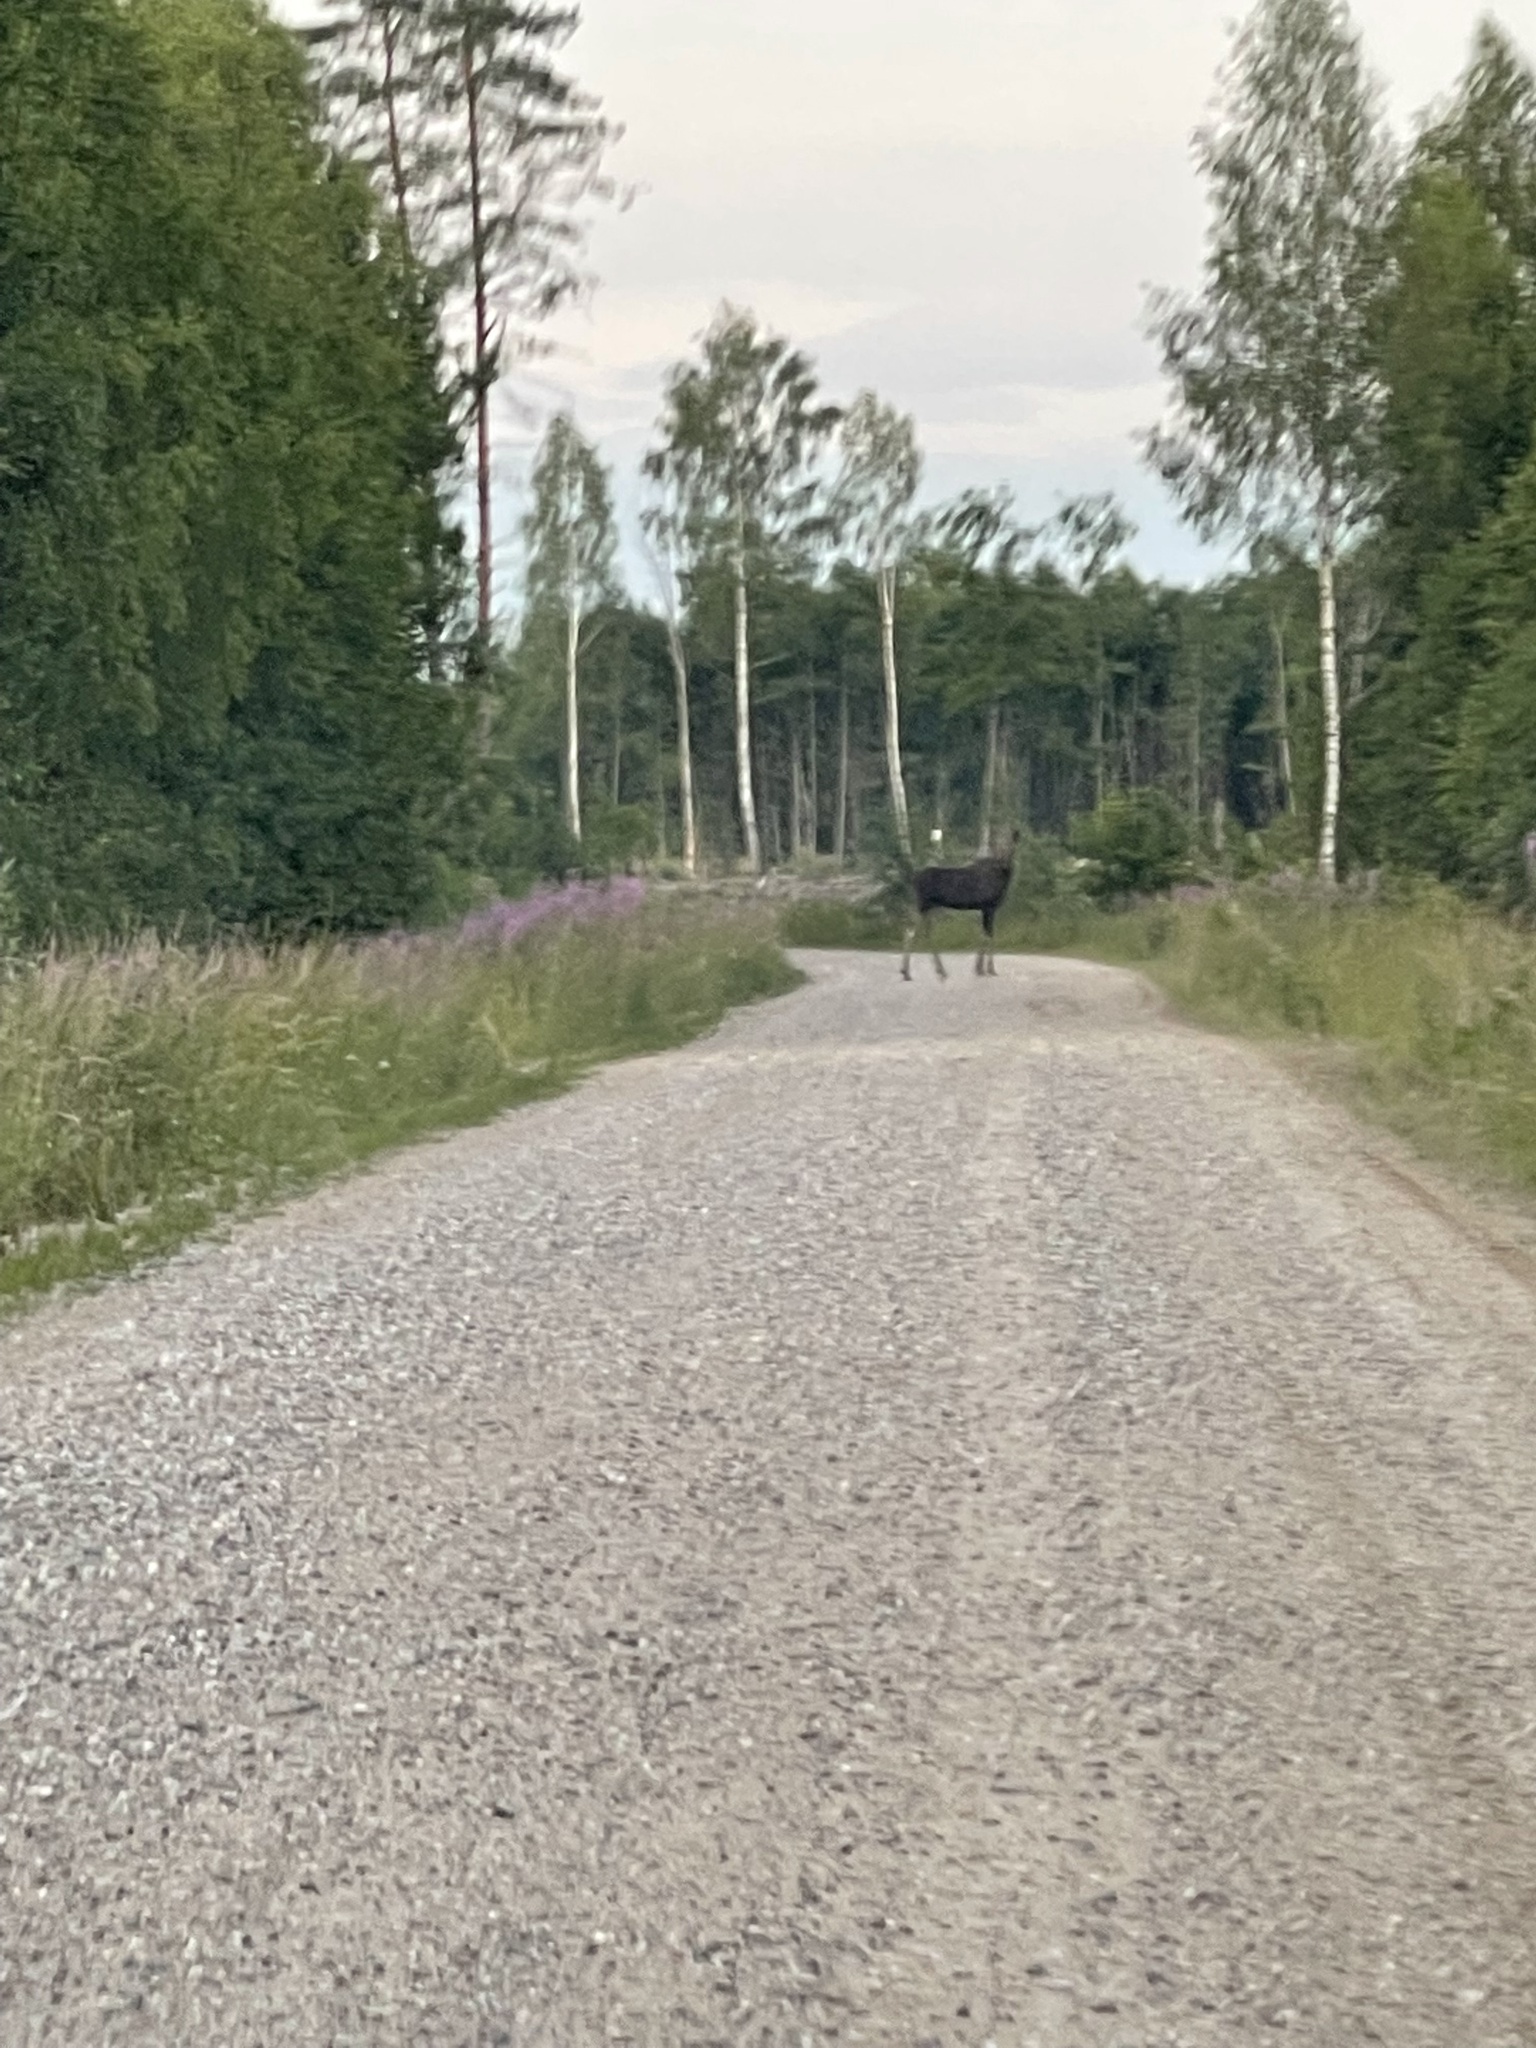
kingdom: Animalia
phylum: Chordata
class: Mammalia
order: Artiodactyla
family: Cervidae
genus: Alces
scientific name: Alces alces
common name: Moose
